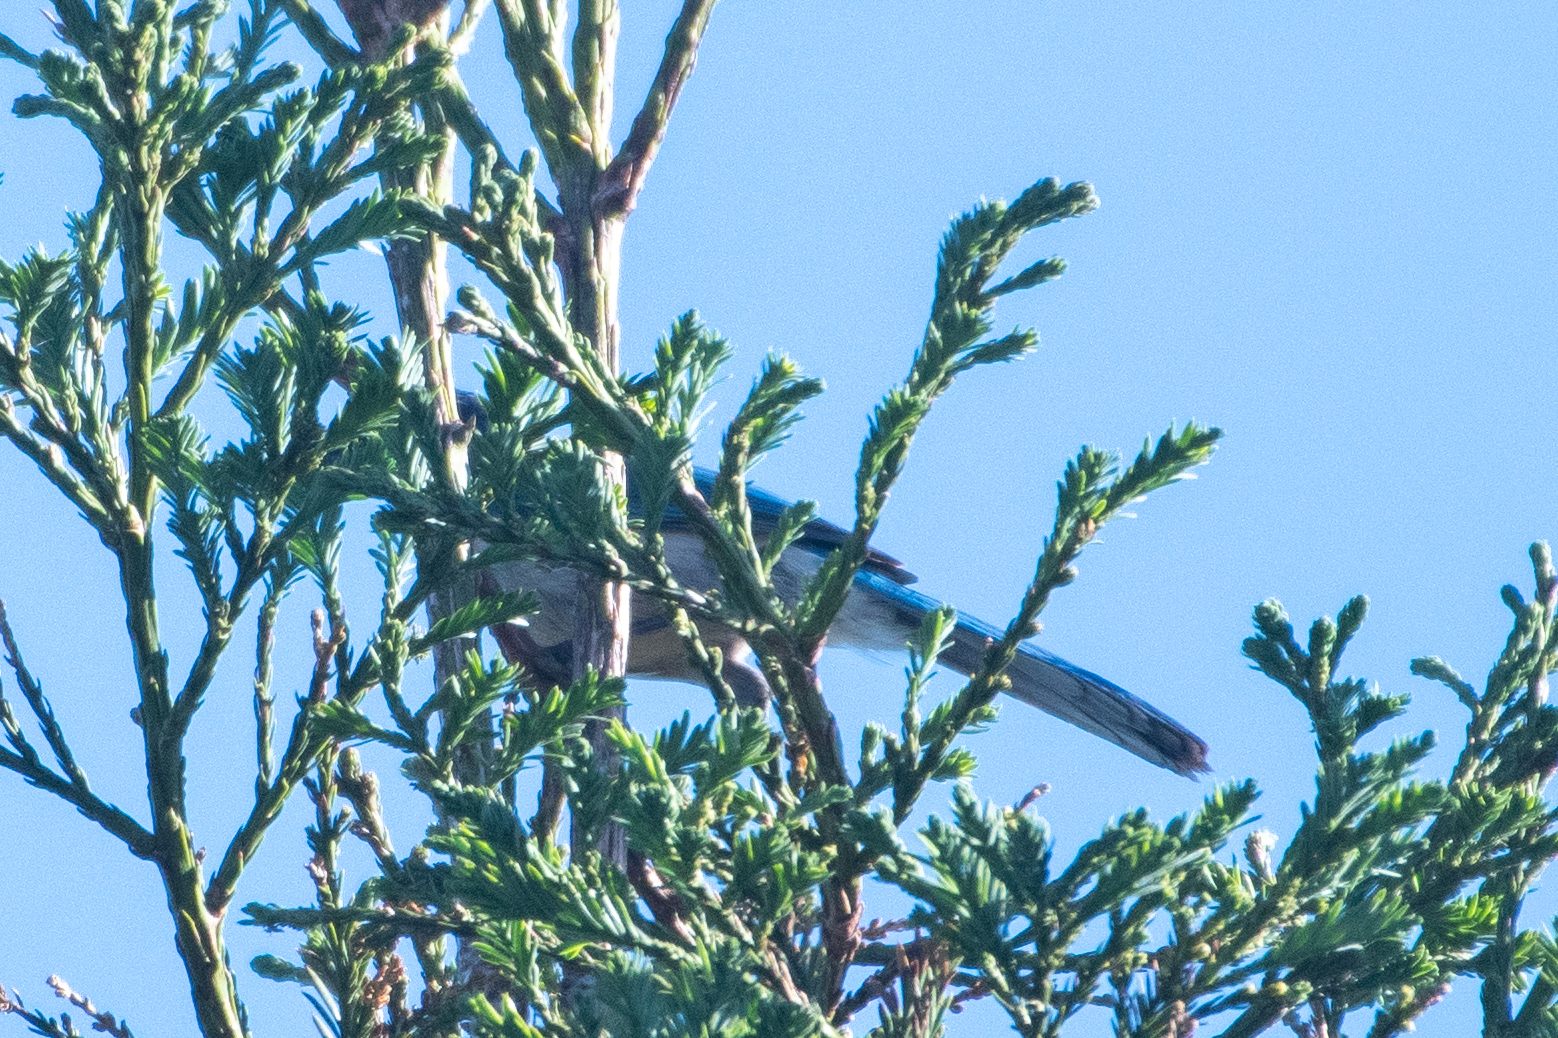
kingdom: Animalia
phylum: Chordata
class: Aves
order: Passeriformes
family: Corvidae
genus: Aphelocoma
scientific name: Aphelocoma californica
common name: California scrub-jay
